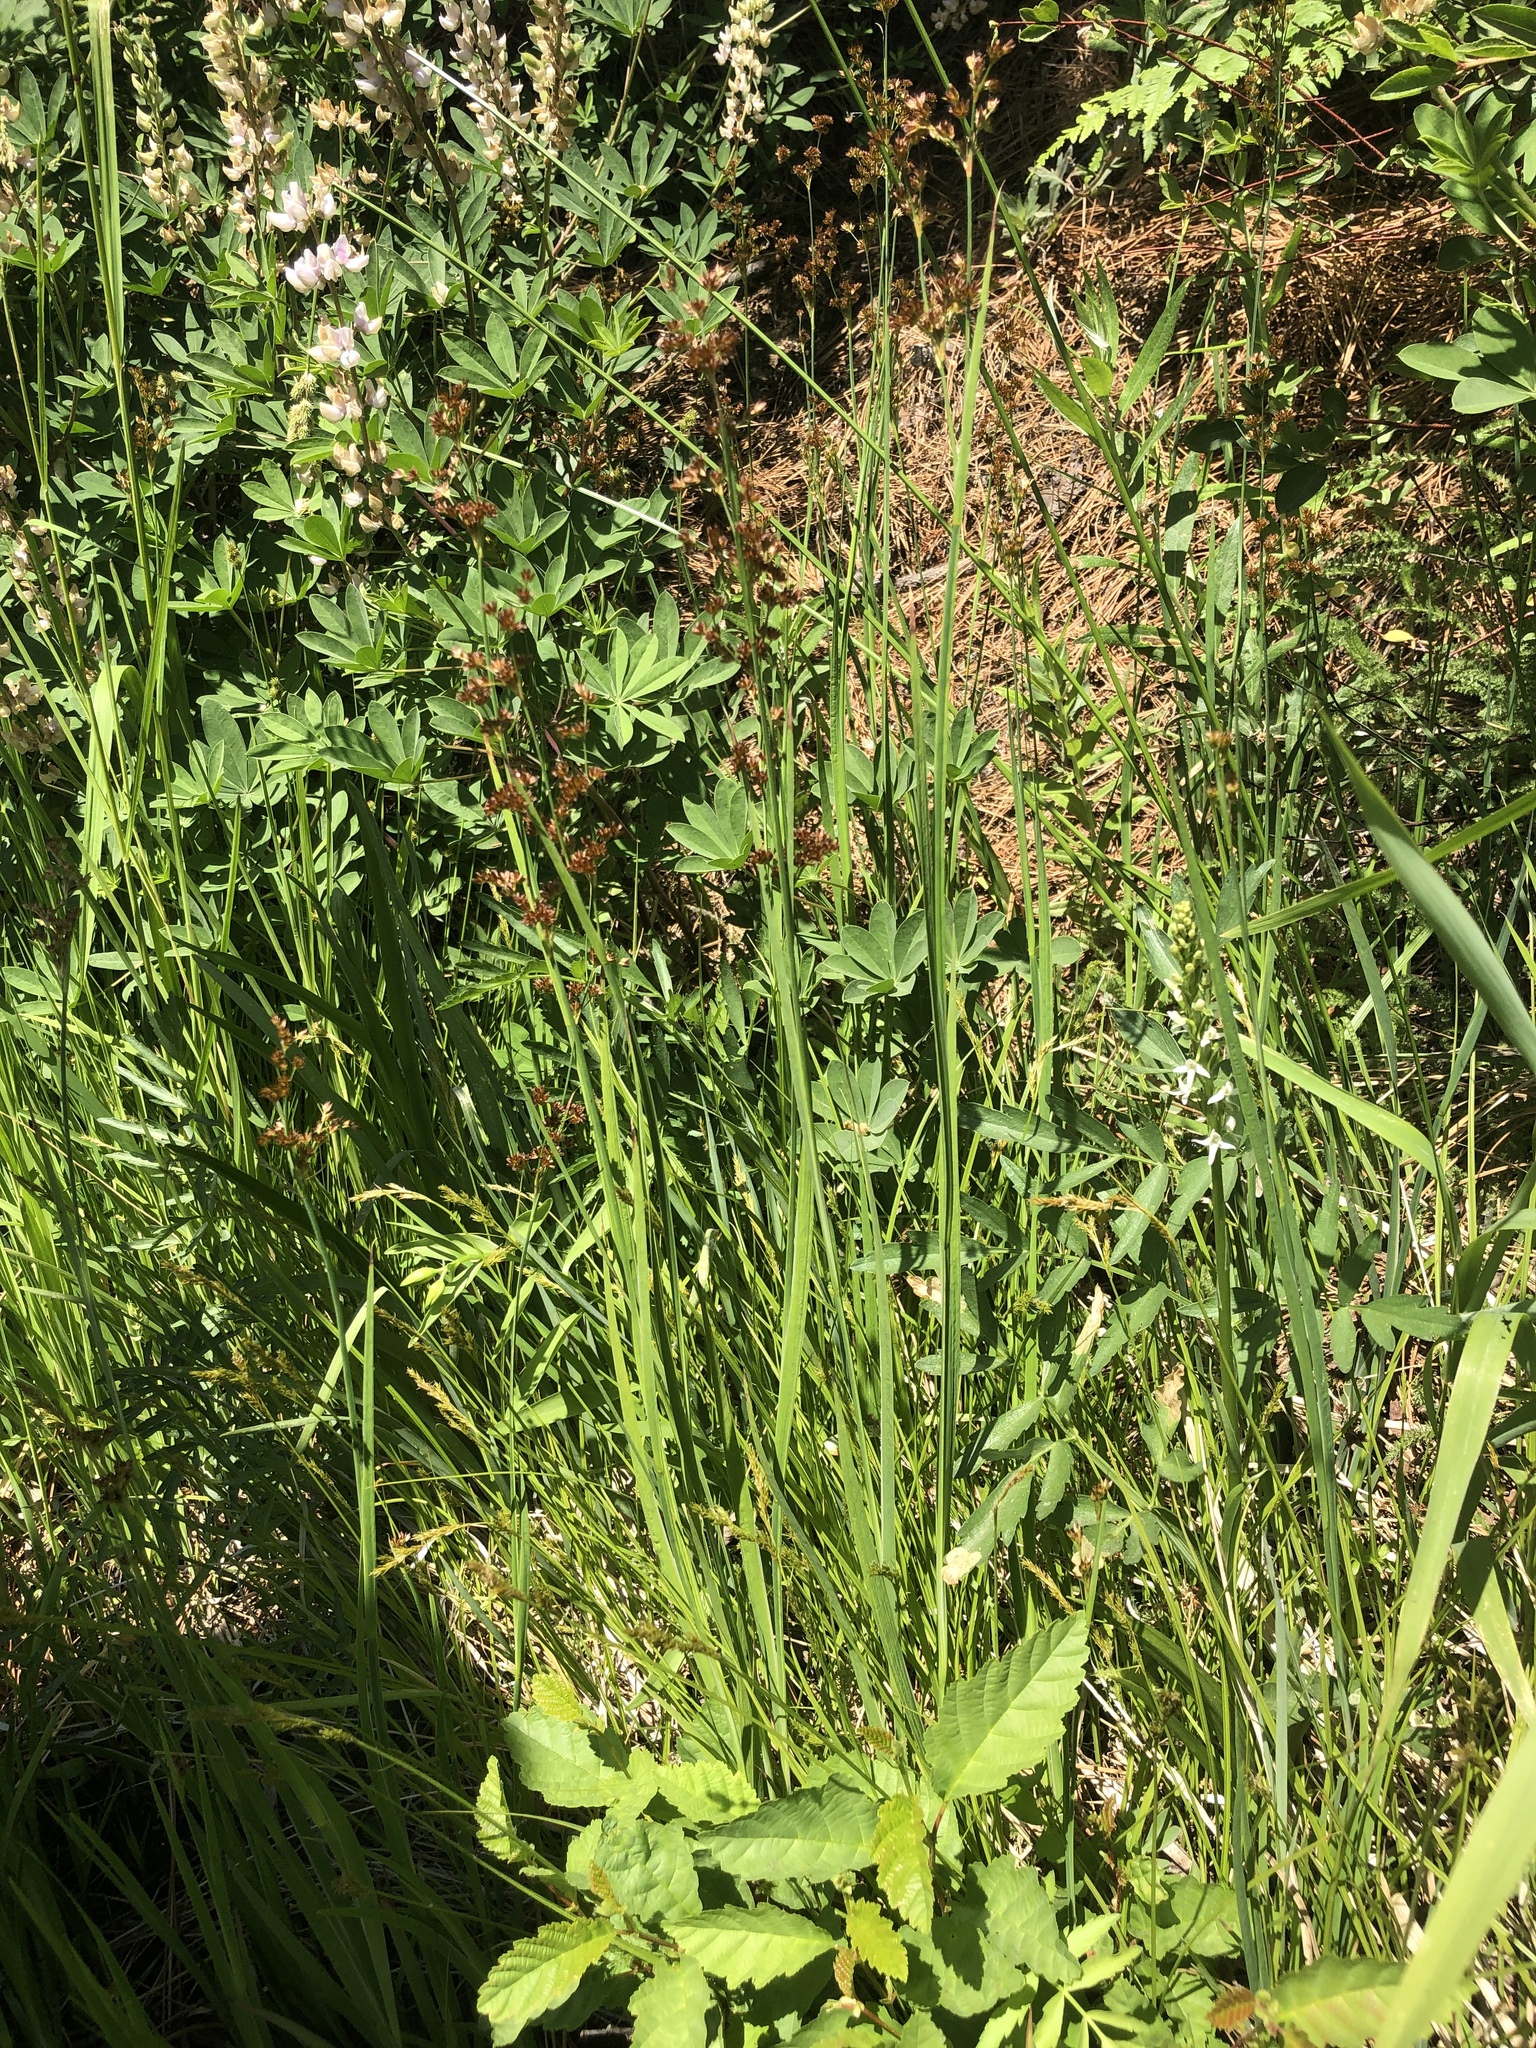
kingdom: Plantae
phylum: Tracheophyta
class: Liliopsida
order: Asparagales
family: Orchidaceae
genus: Platanthera
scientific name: Platanthera dilatata
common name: Bog candles
